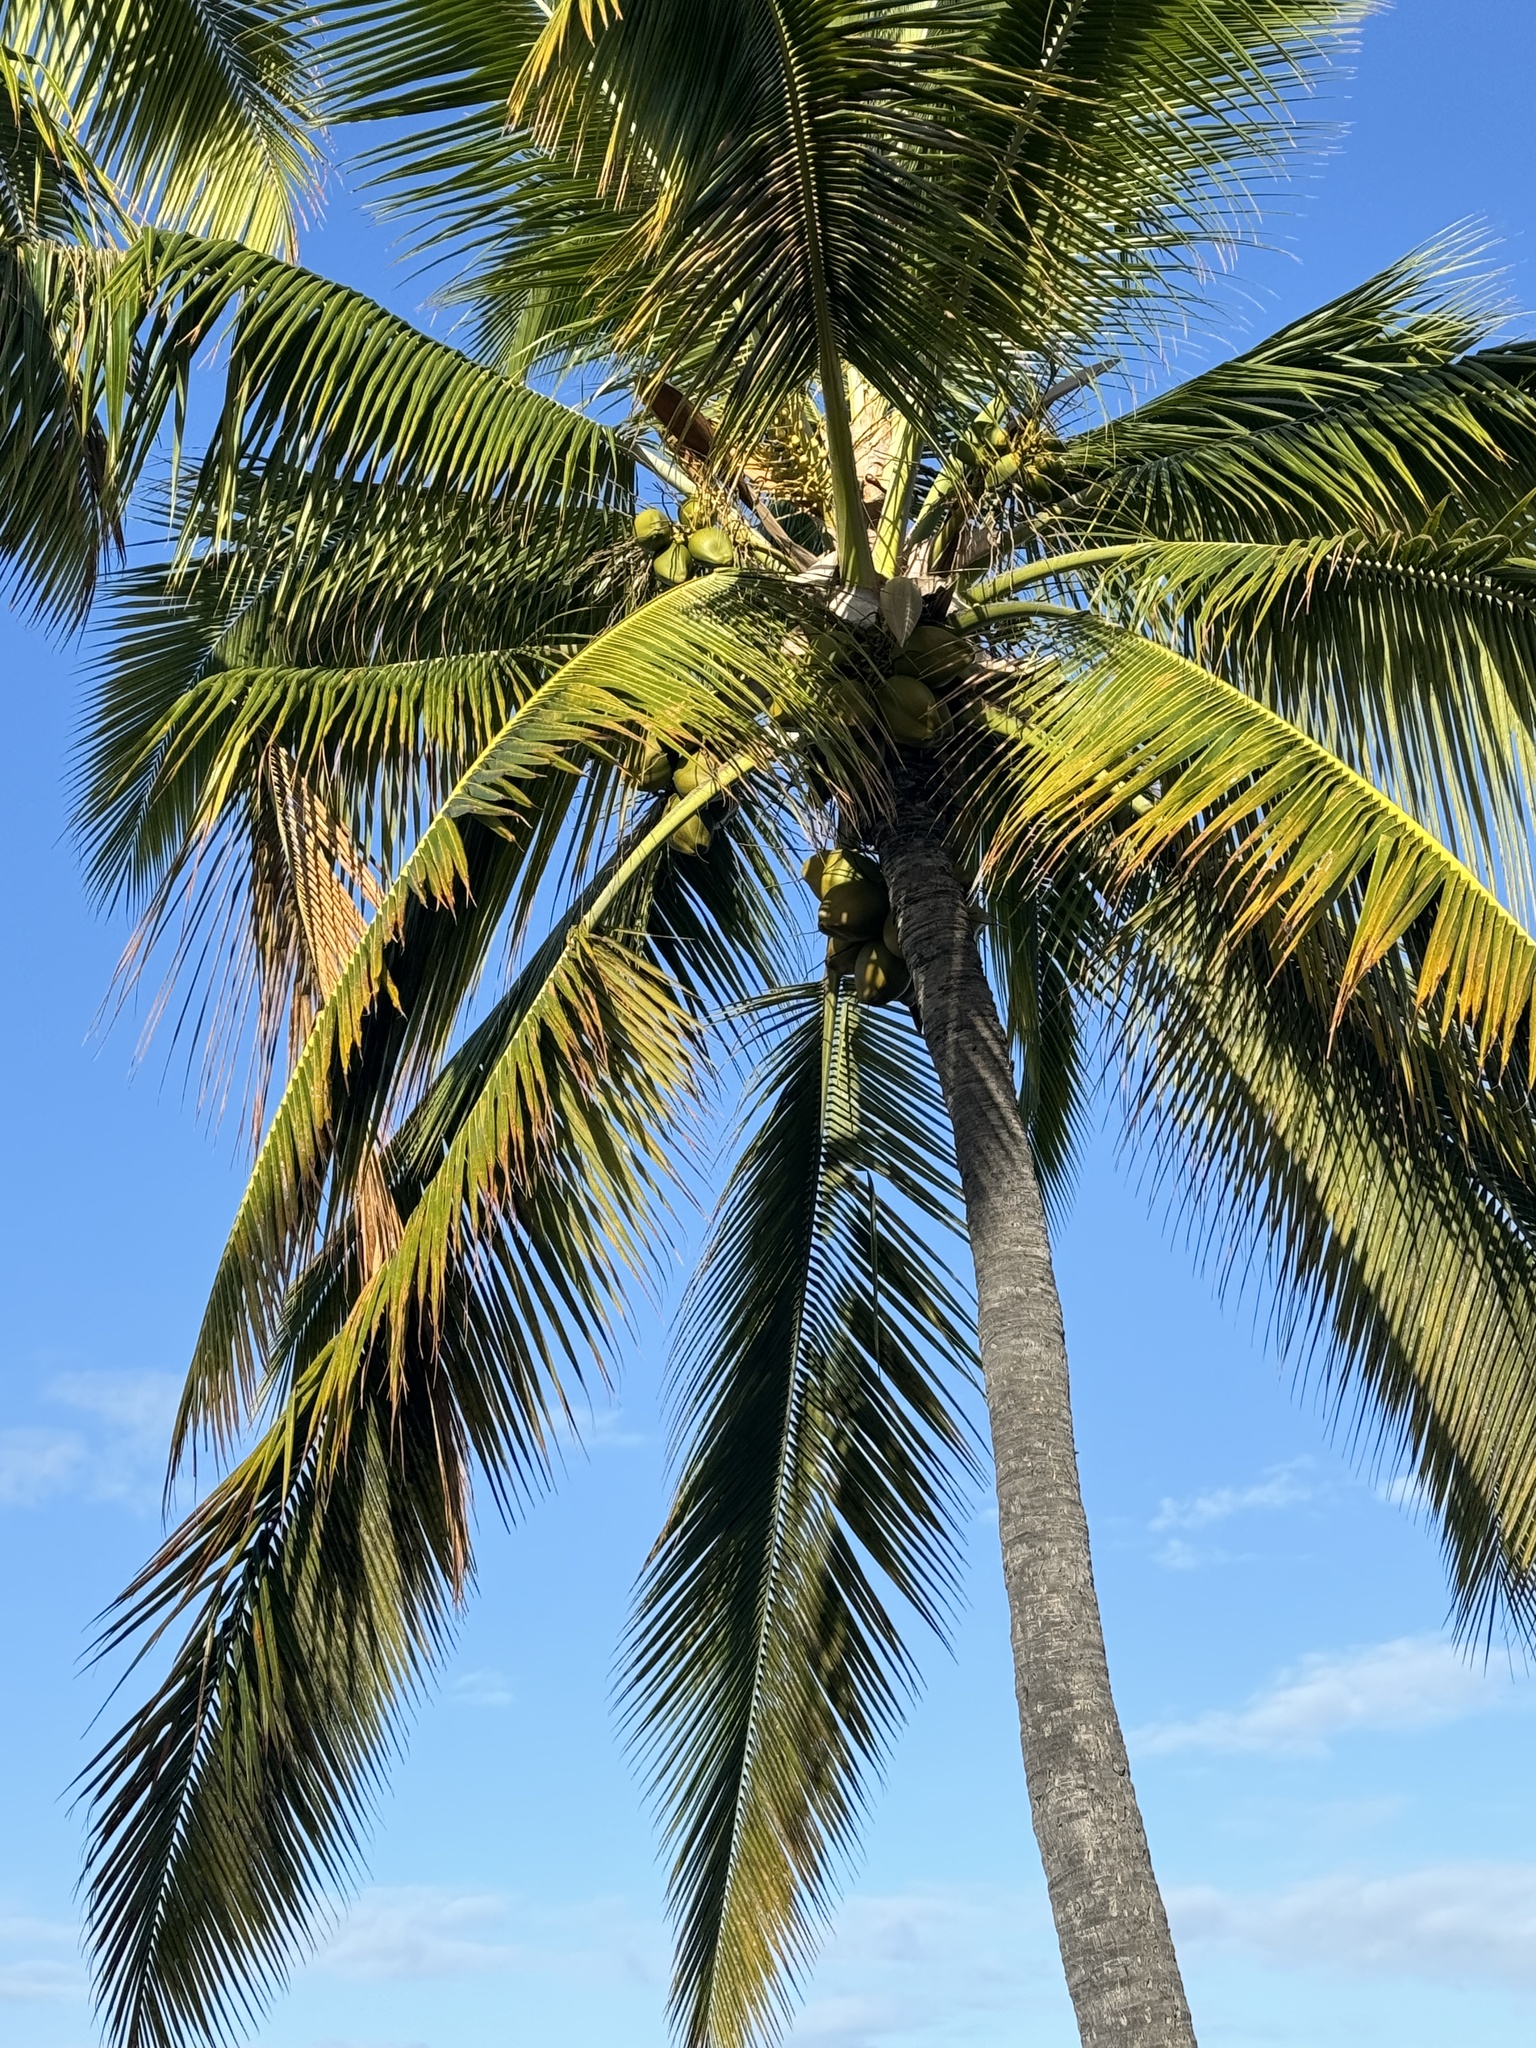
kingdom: Plantae
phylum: Tracheophyta
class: Liliopsida
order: Arecales
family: Arecaceae
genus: Cocos
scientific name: Cocos nucifera
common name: Coconut palm
